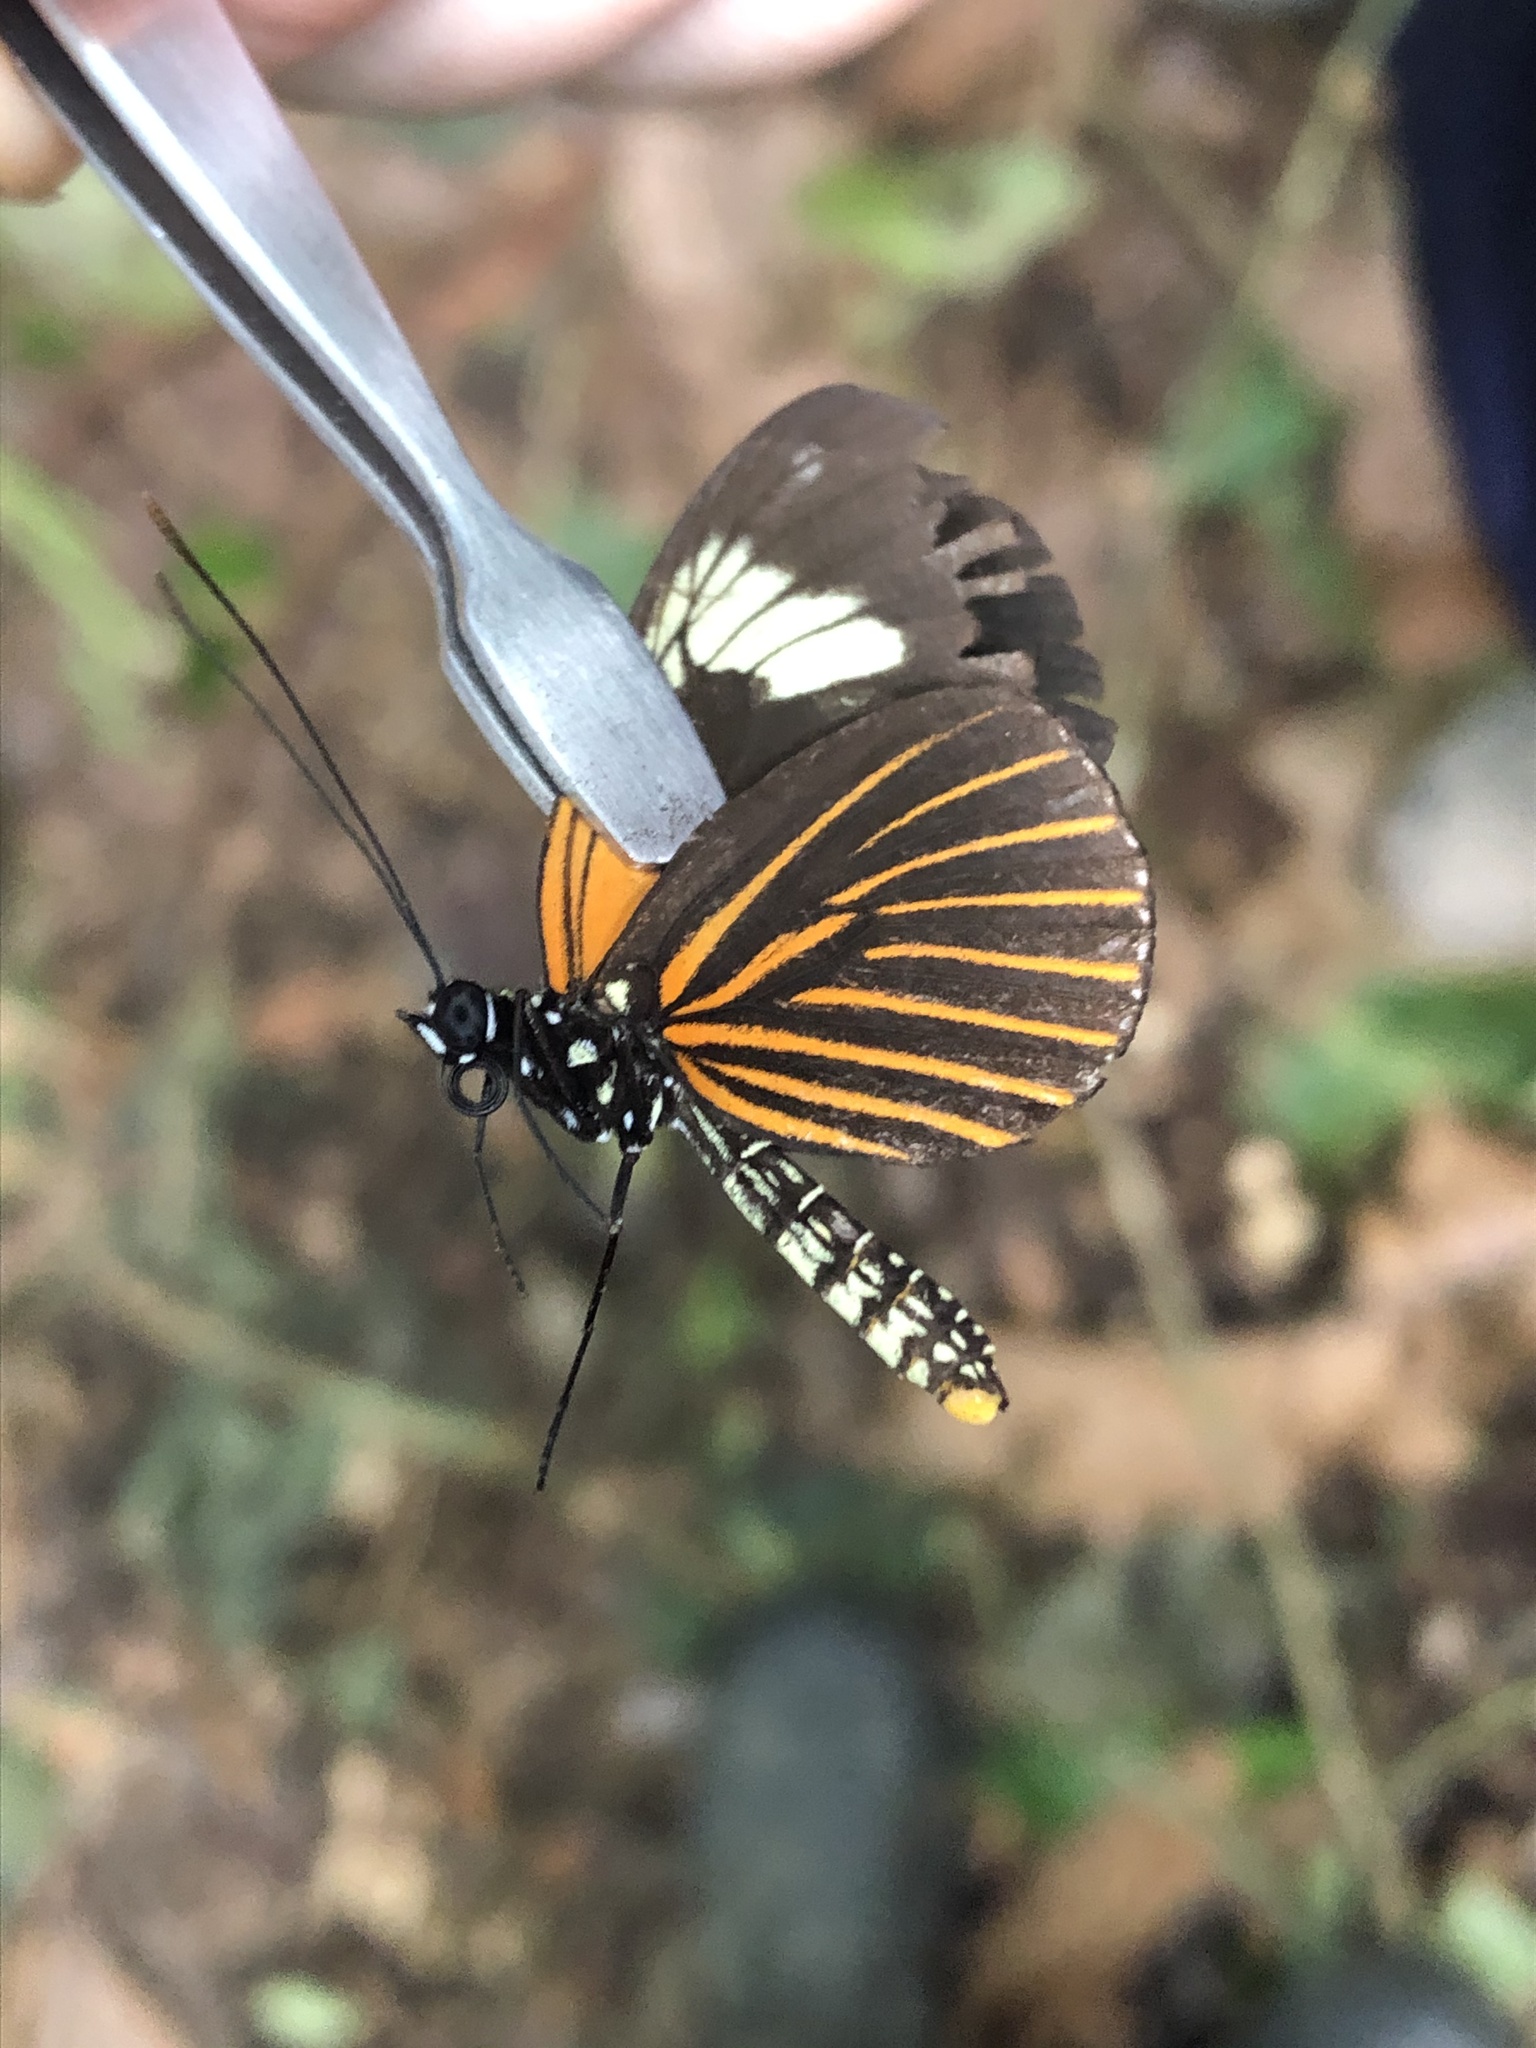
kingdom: Animalia
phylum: Arthropoda
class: Insecta
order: Lepidoptera
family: Nymphalidae
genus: Heliconius
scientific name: Heliconius xanthocles
